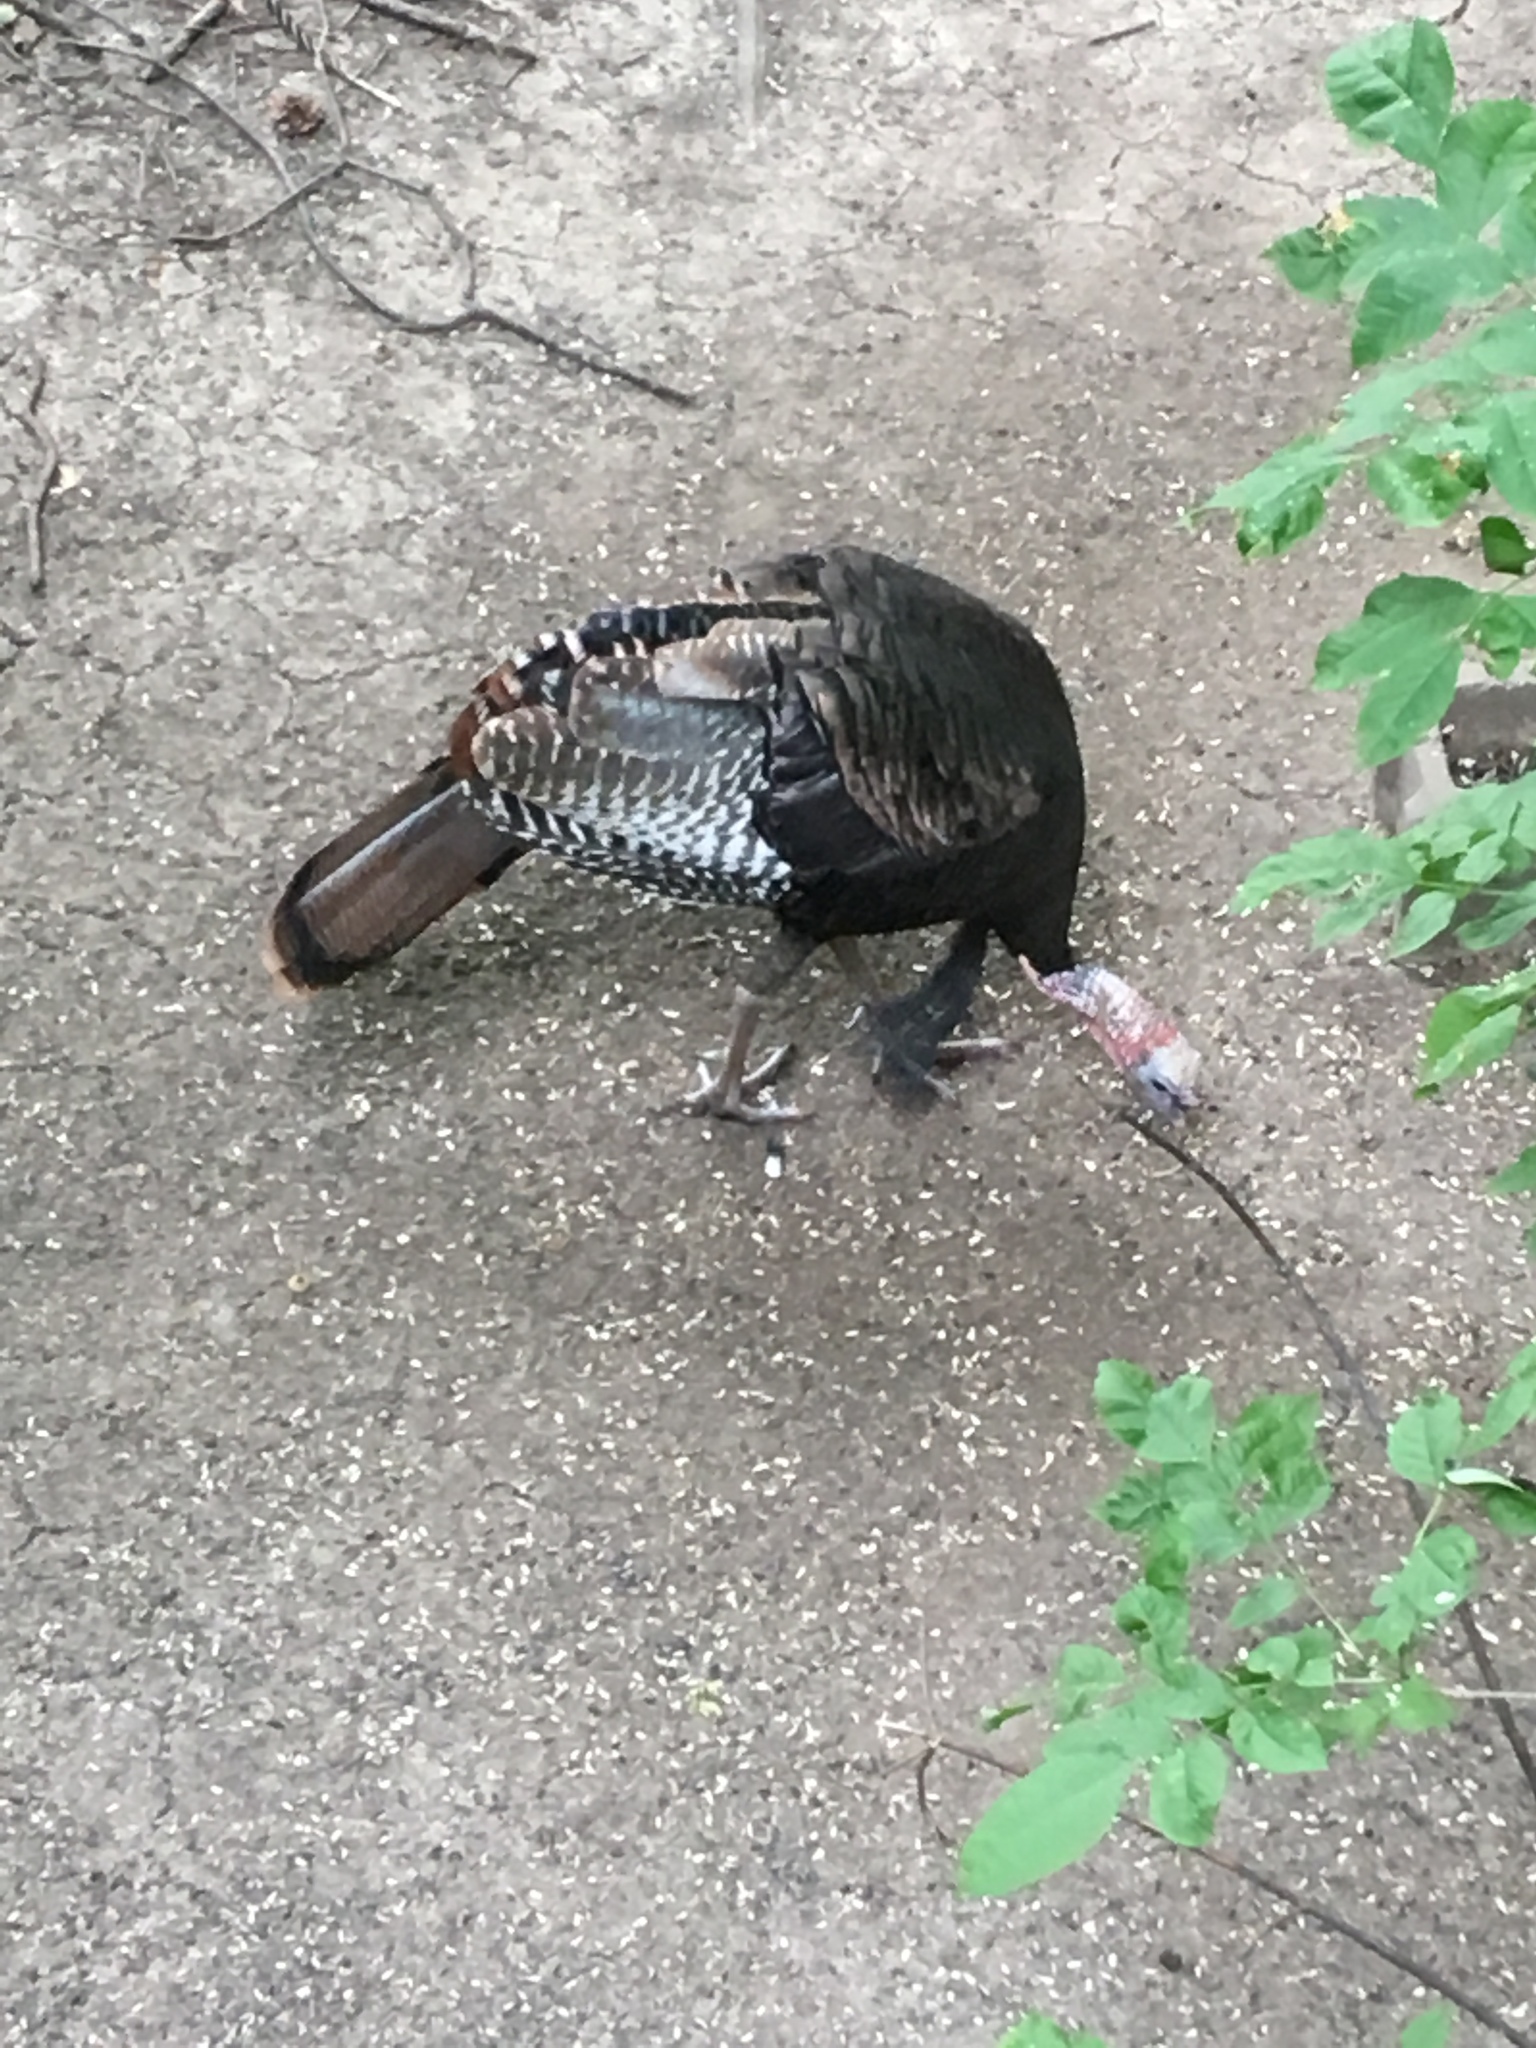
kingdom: Animalia
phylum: Chordata
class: Aves
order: Galliformes
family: Phasianidae
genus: Meleagris
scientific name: Meleagris gallopavo
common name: Wild turkey
